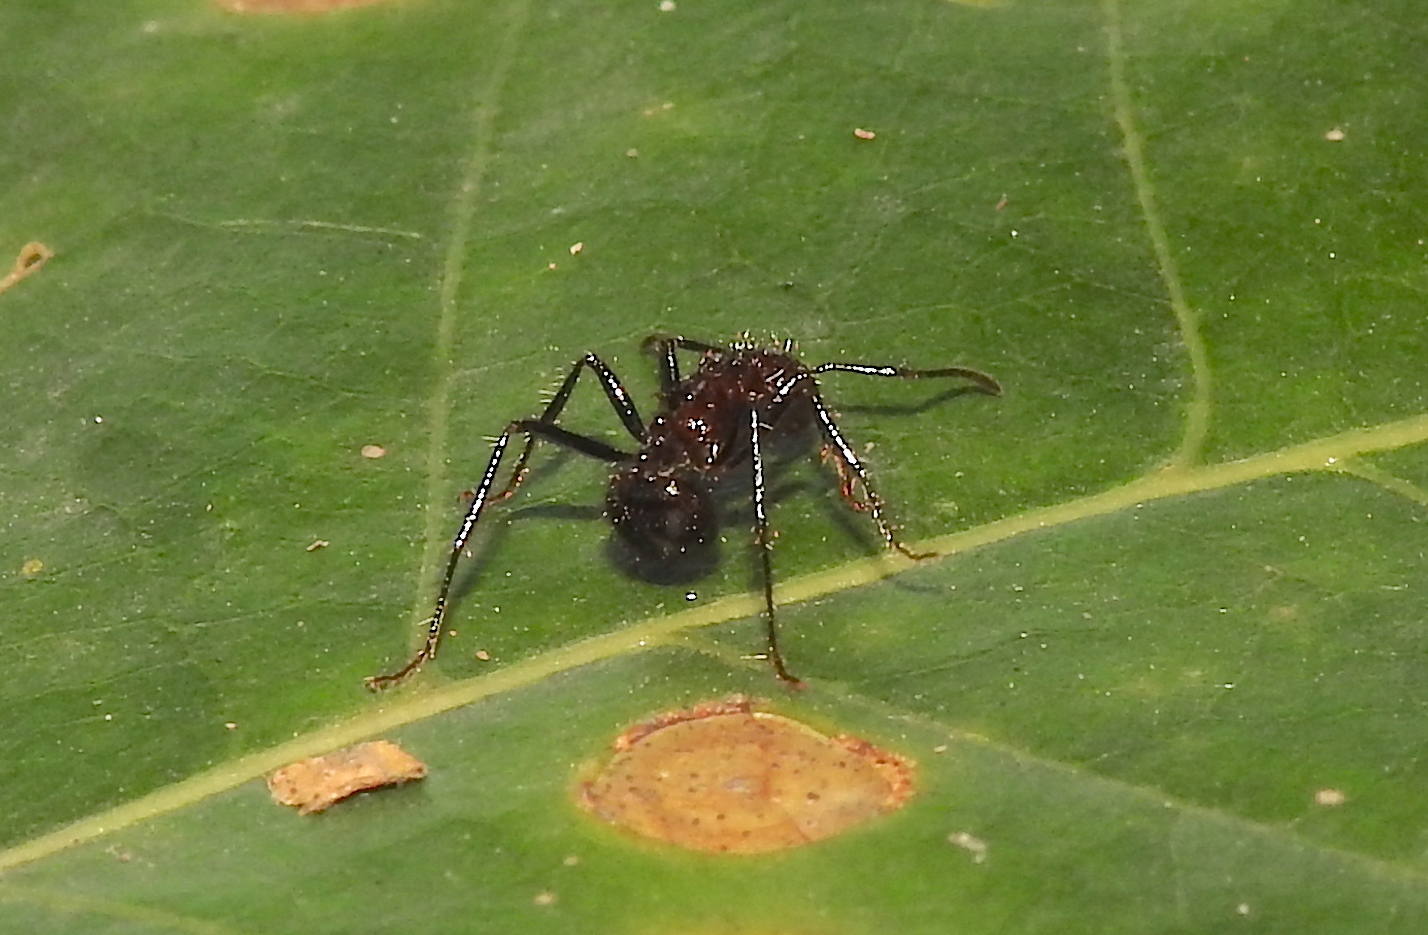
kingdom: Animalia
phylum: Arthropoda
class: Insecta
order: Hymenoptera
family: Formicidae
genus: Myrmicaria
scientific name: Myrmicaria brunnea
